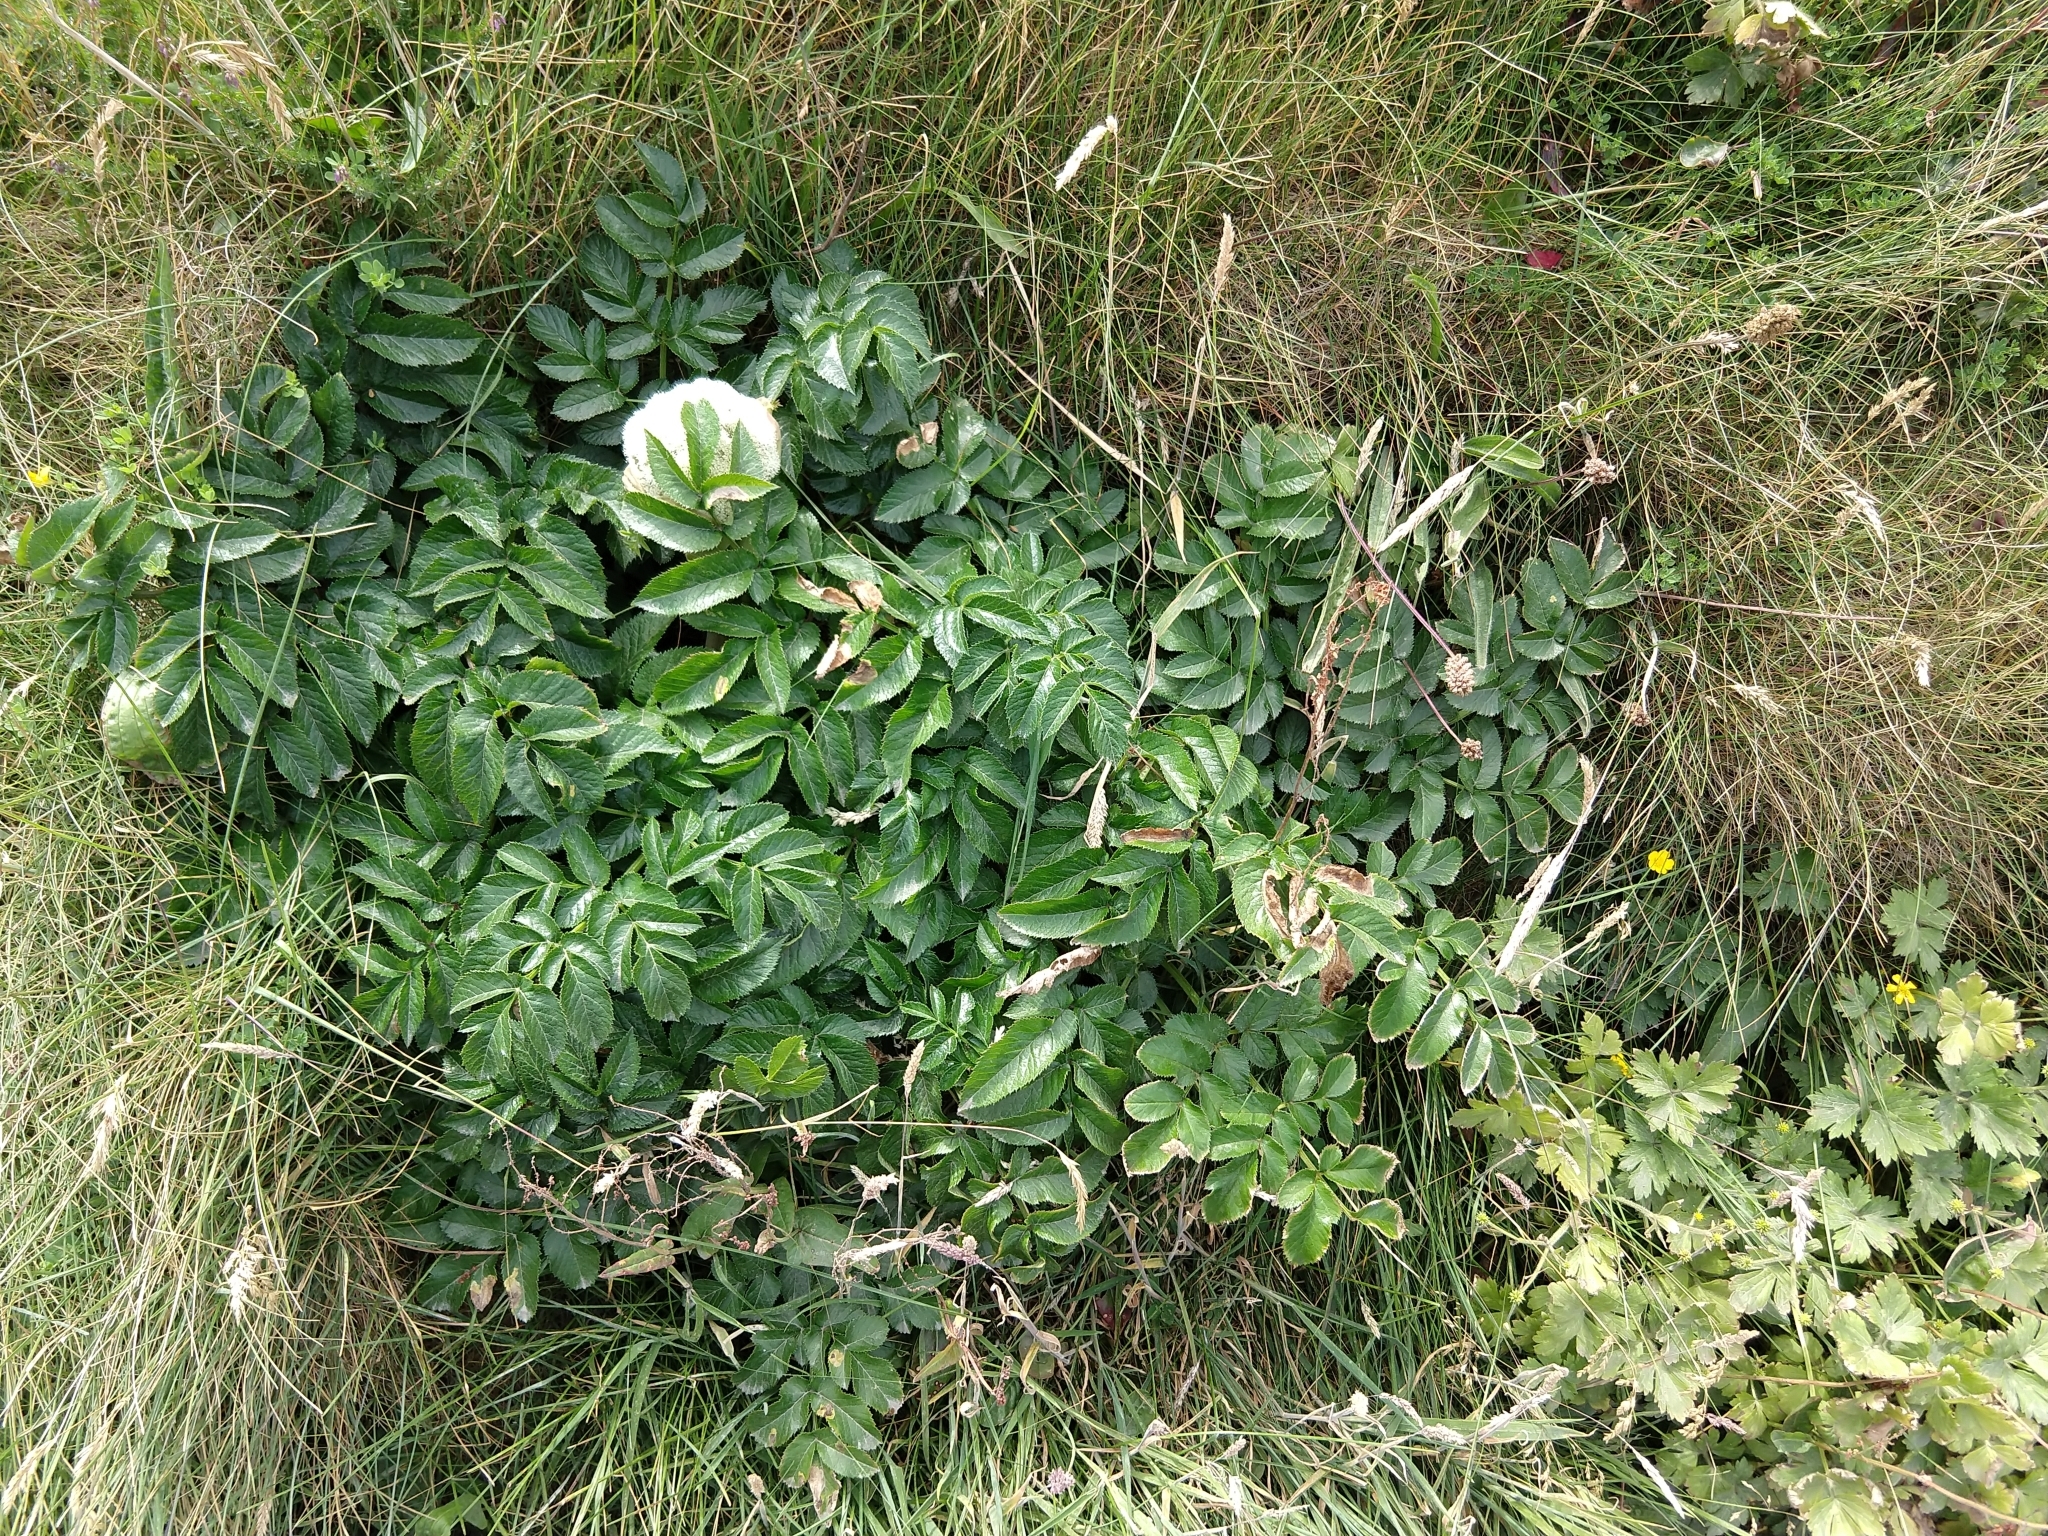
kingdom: Plantae
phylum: Tracheophyta
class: Magnoliopsida
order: Apiales
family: Apiaceae
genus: Angelica
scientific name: Angelica sylvestris
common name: Wild angelica
